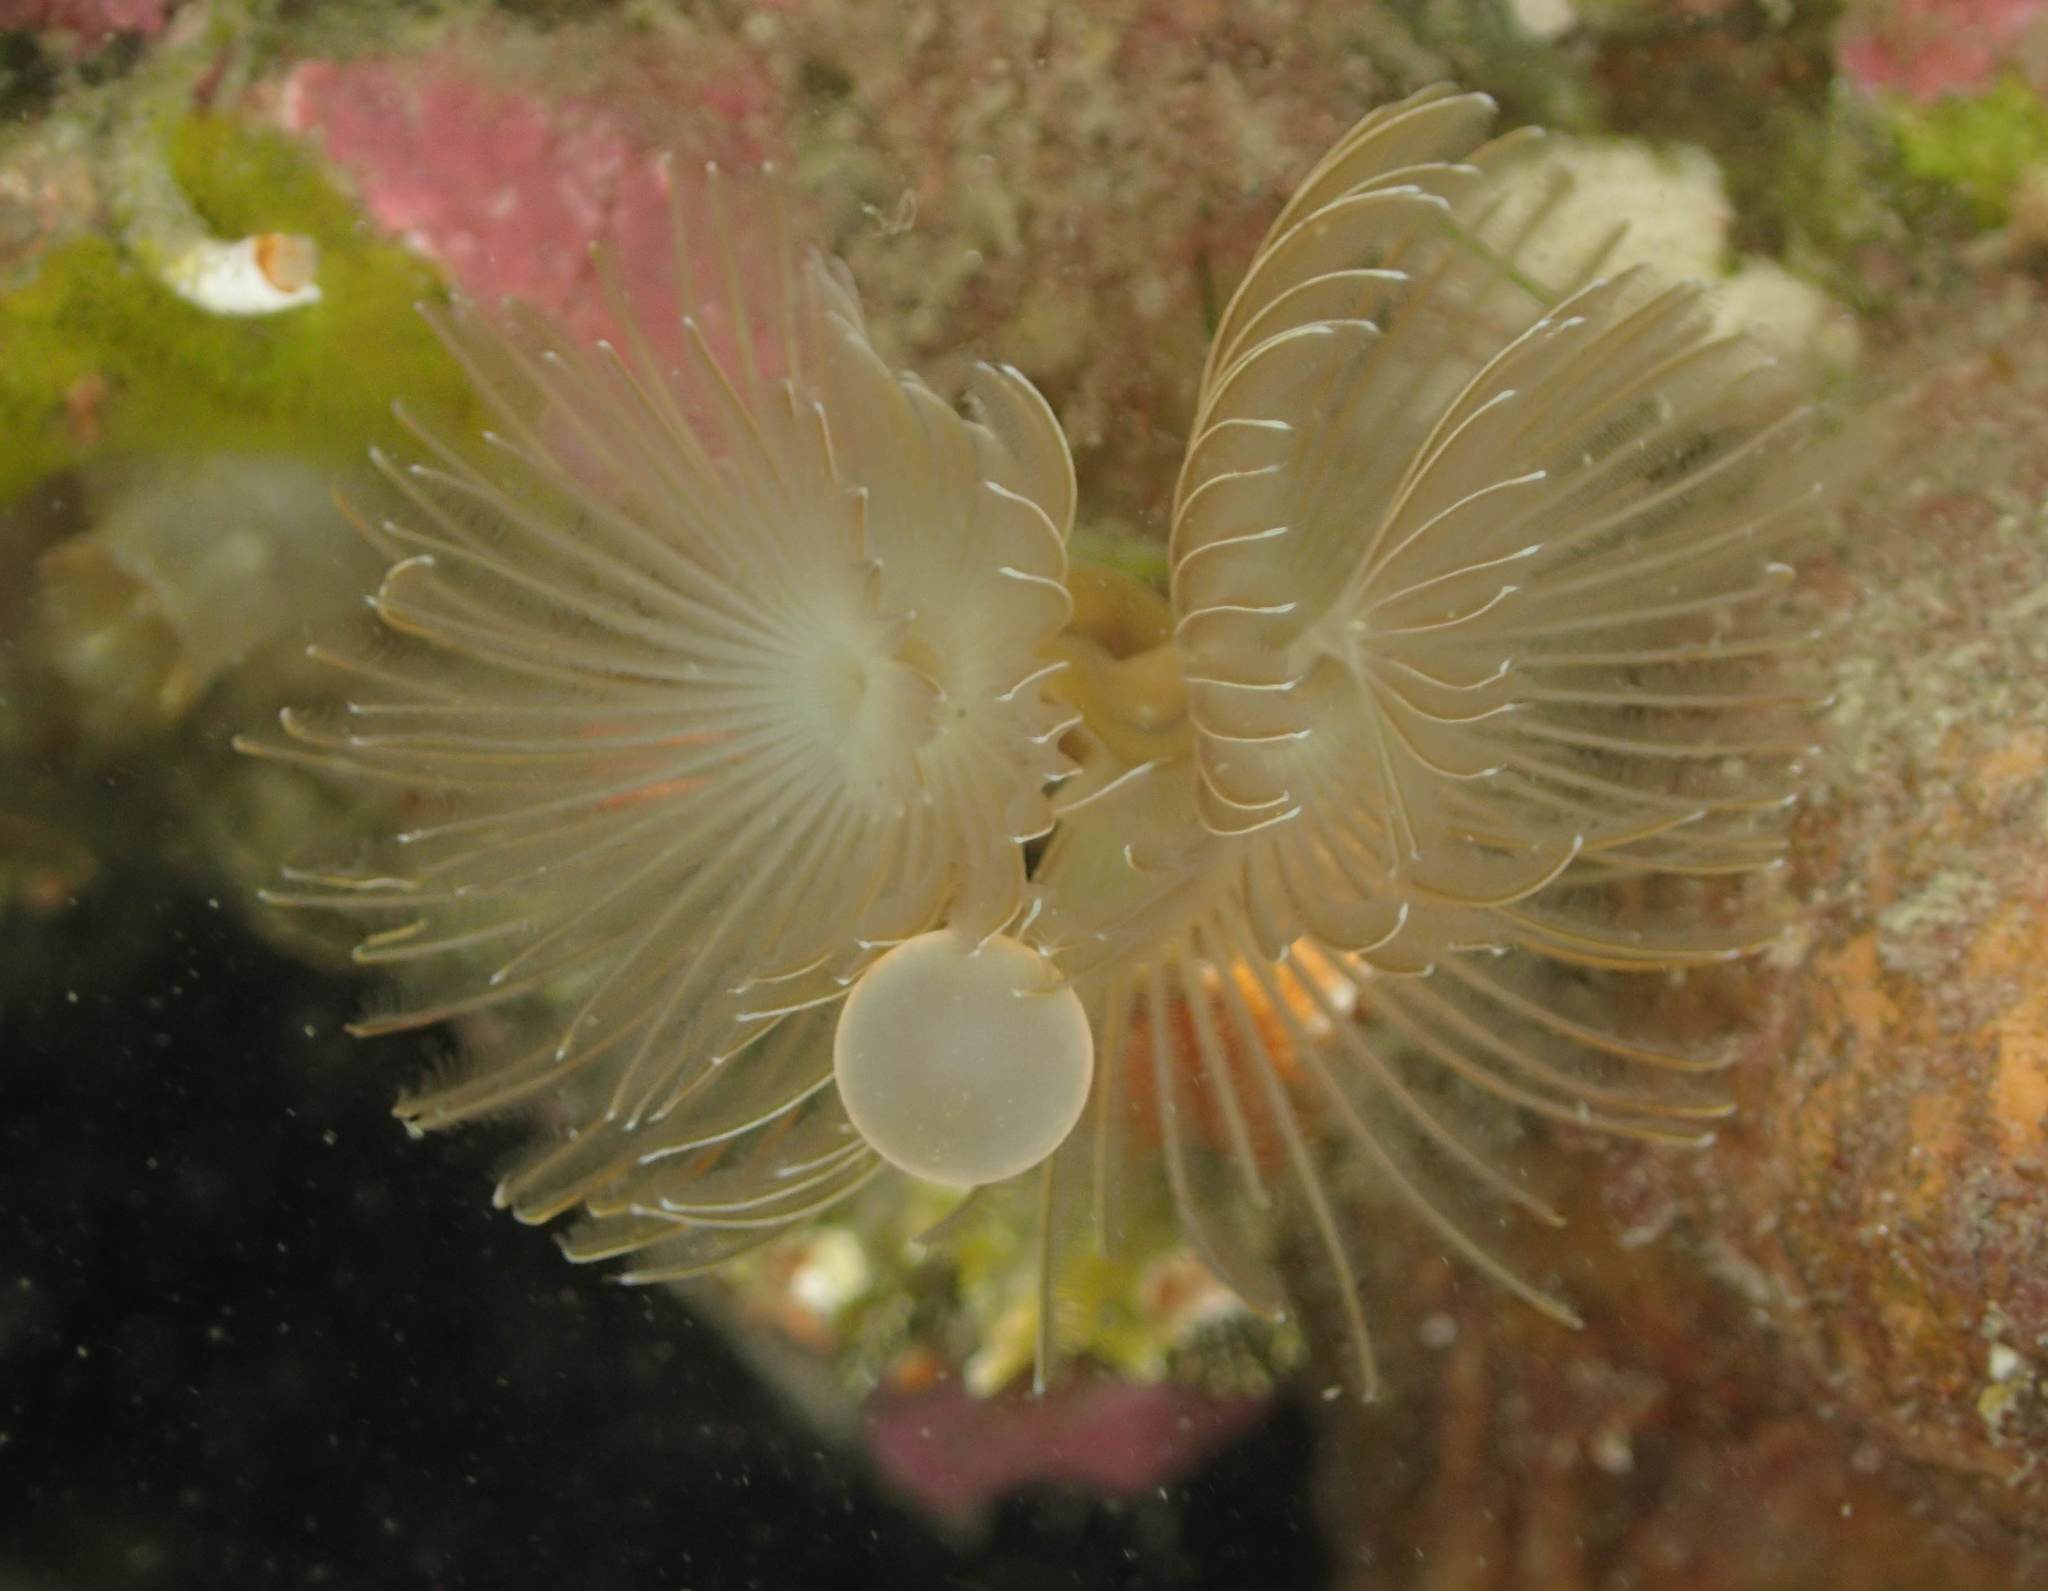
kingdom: Animalia
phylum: Annelida
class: Polychaeta
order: Sabellida
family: Serpulidae
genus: Neovermilia
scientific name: Neovermilia sphaeropomata
